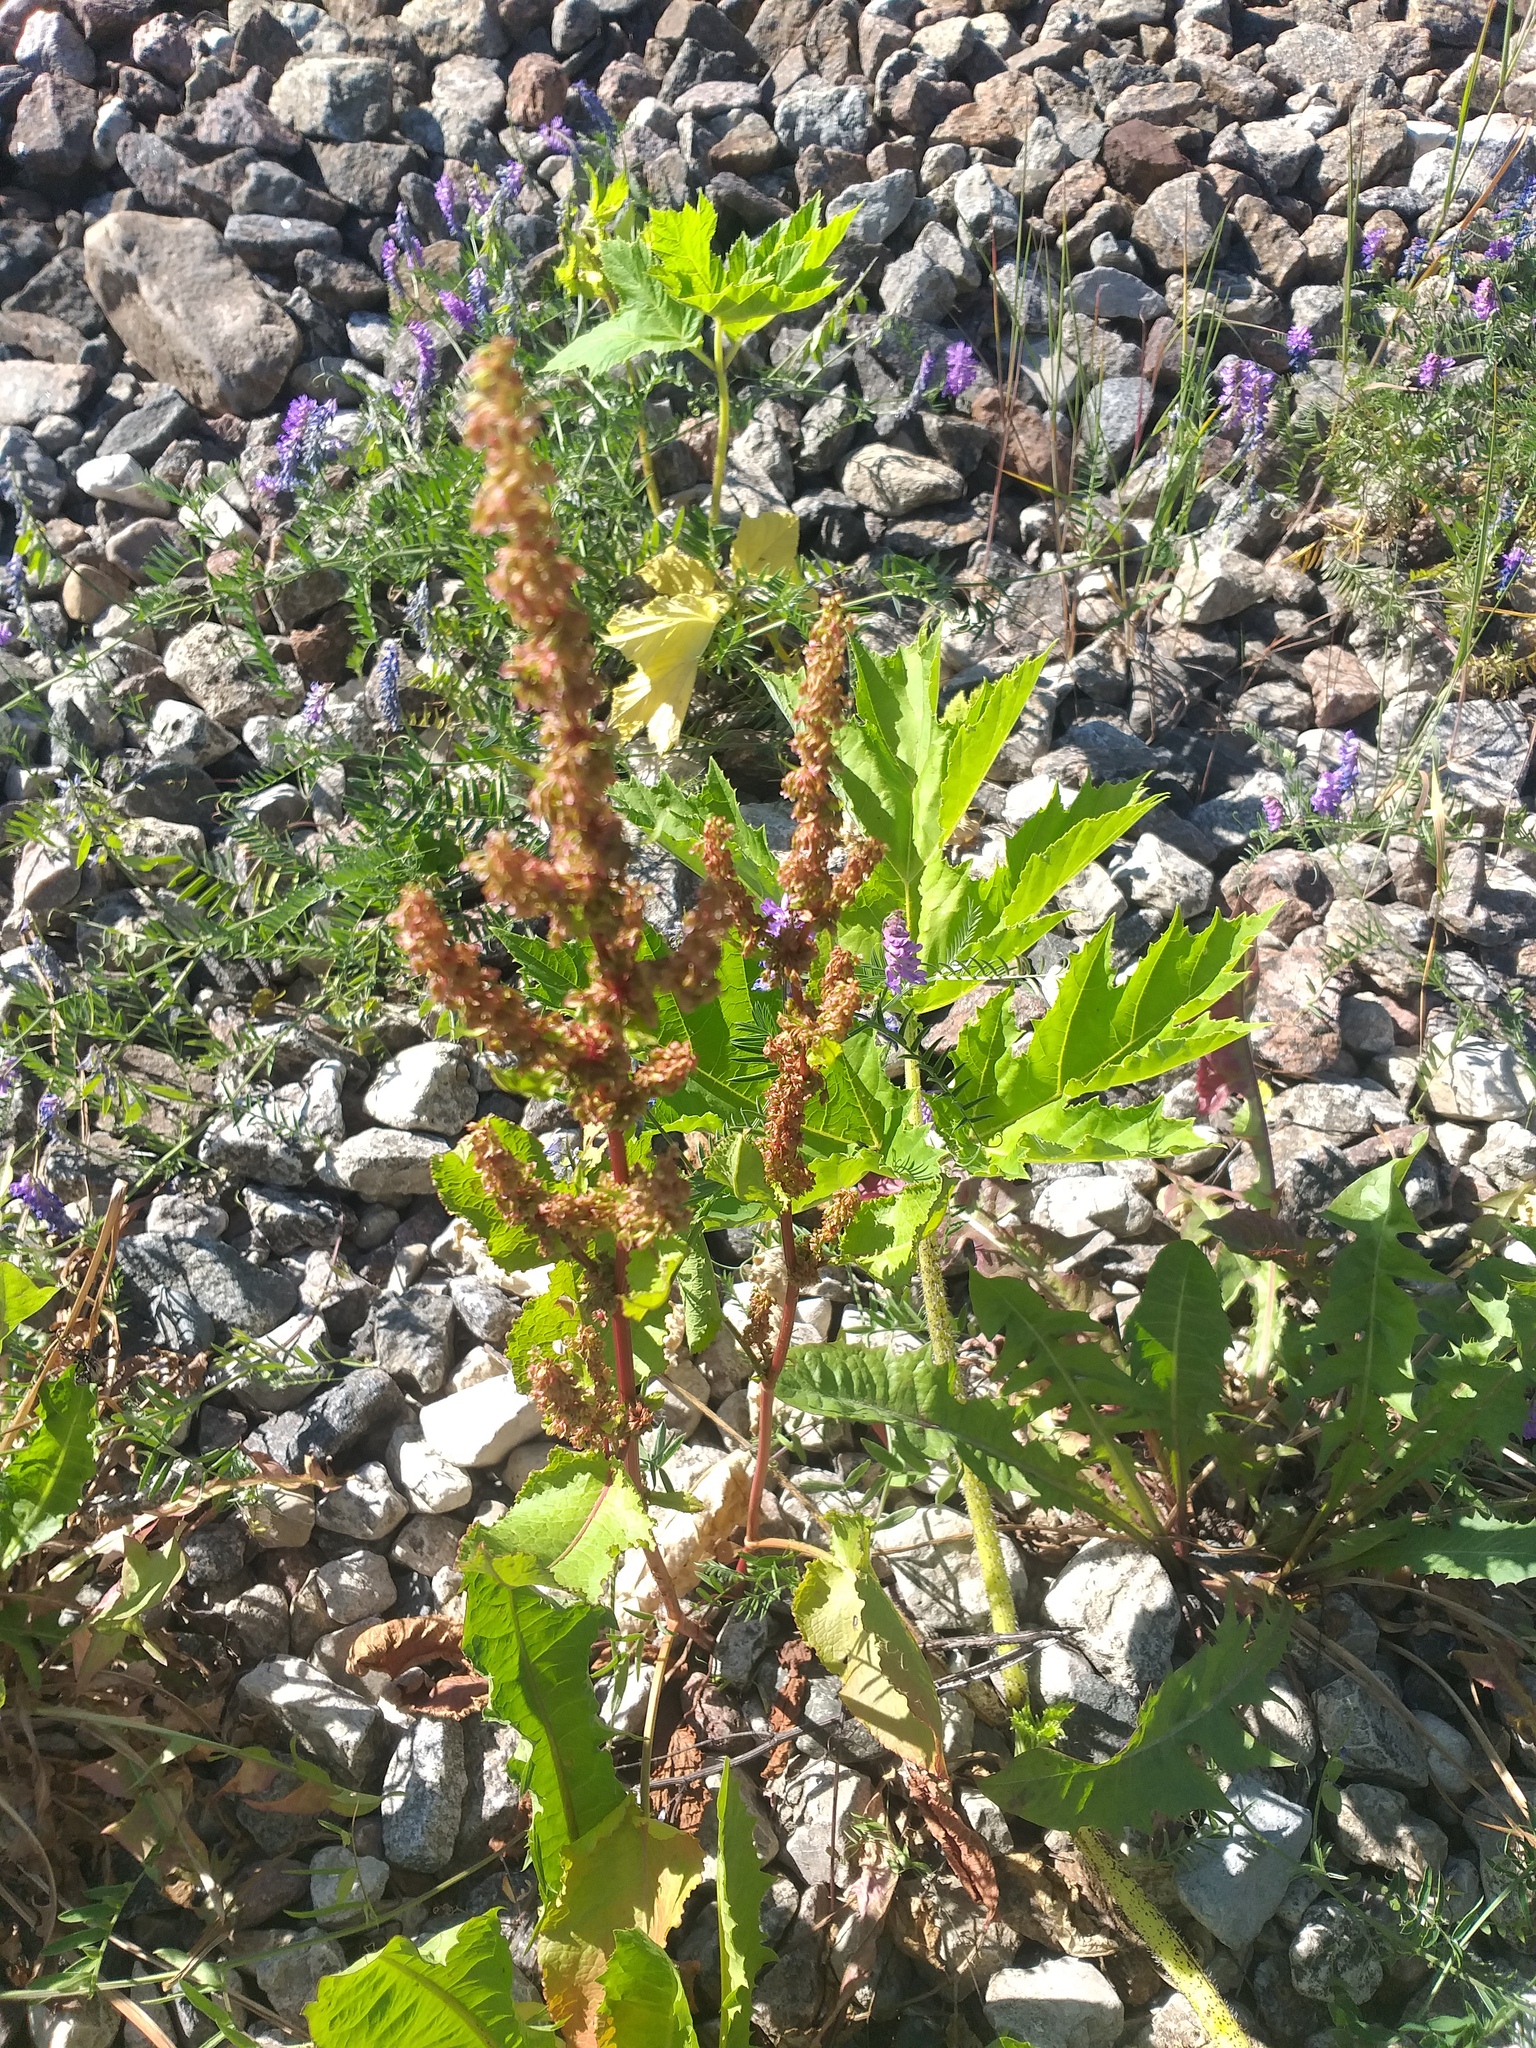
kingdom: Plantae
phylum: Tracheophyta
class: Magnoliopsida
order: Caryophyllales
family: Polygonaceae
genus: Rumex
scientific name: Rumex obtusifolius
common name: Bitter dock
